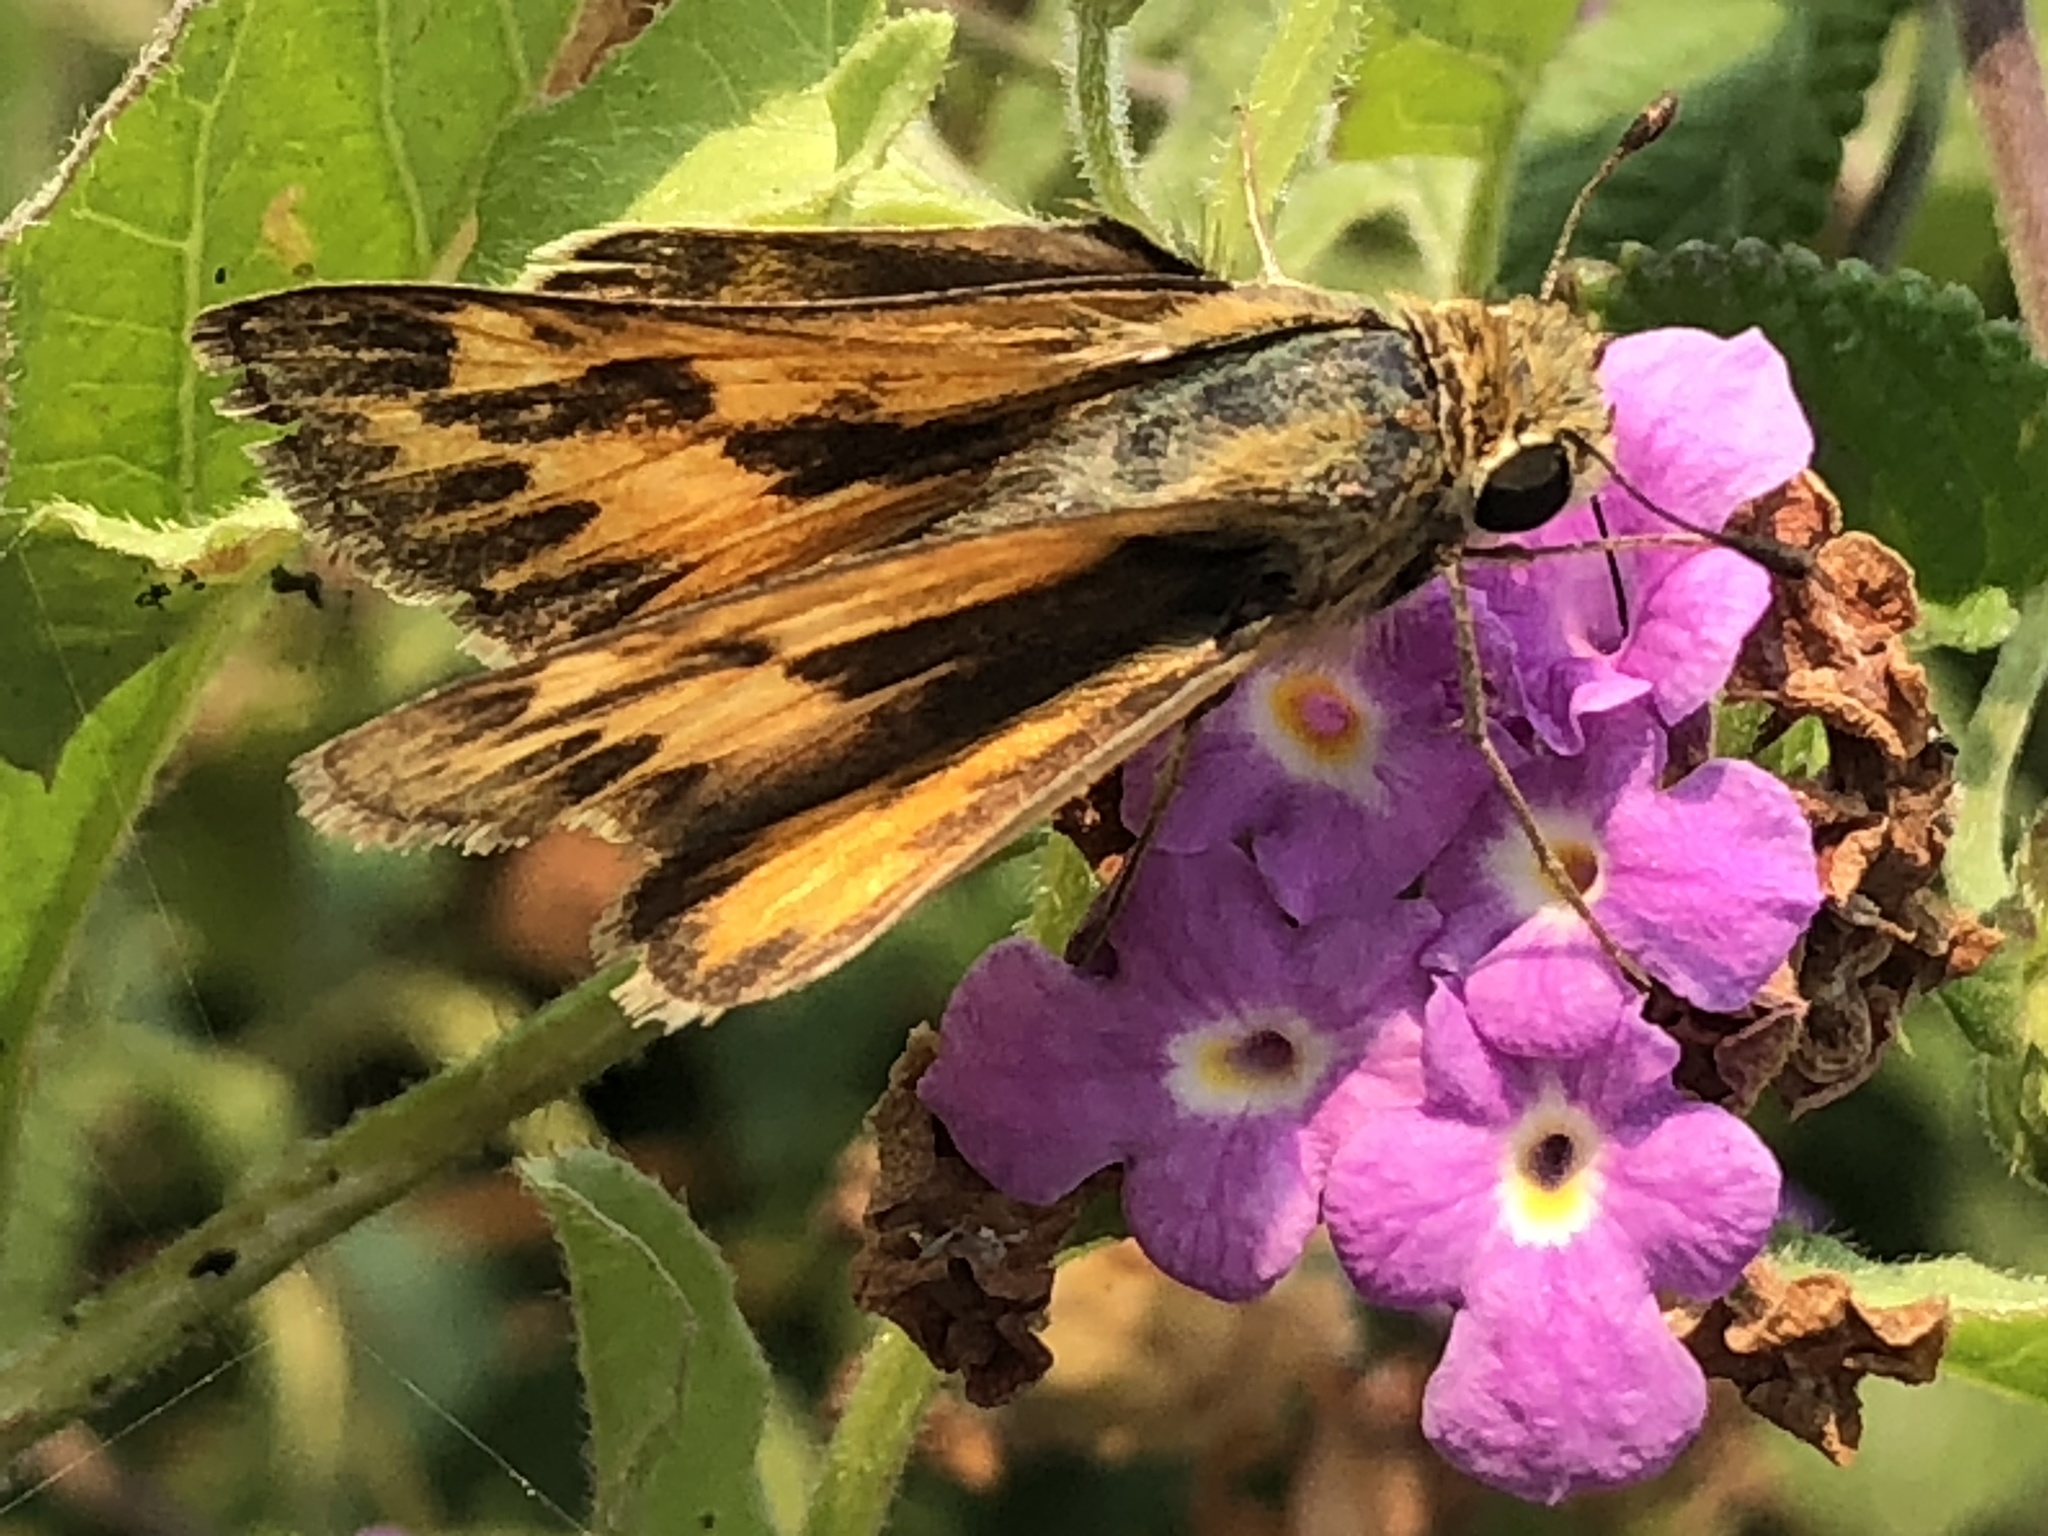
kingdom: Animalia
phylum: Arthropoda
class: Insecta
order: Lepidoptera
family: Hesperiidae
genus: Hylephila
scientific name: Hylephila phyleus
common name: Fiery skipper
